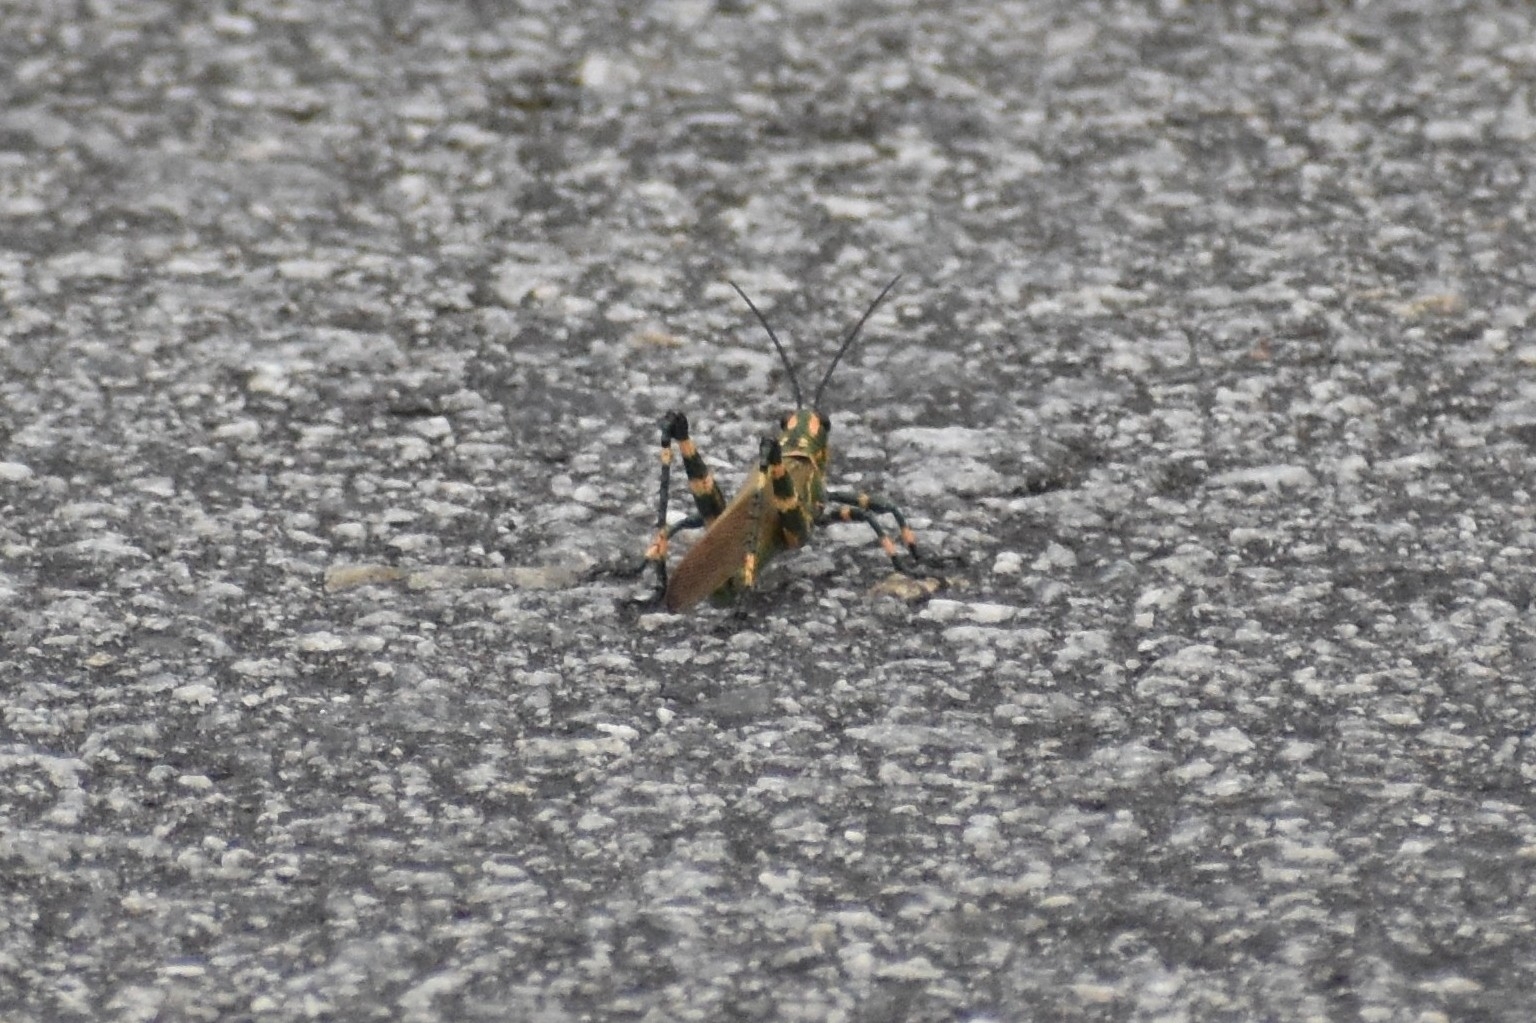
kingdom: Animalia
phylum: Arthropoda
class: Insecta
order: Orthoptera
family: Romaleidae
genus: Chromacris
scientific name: Chromacris speciosa
